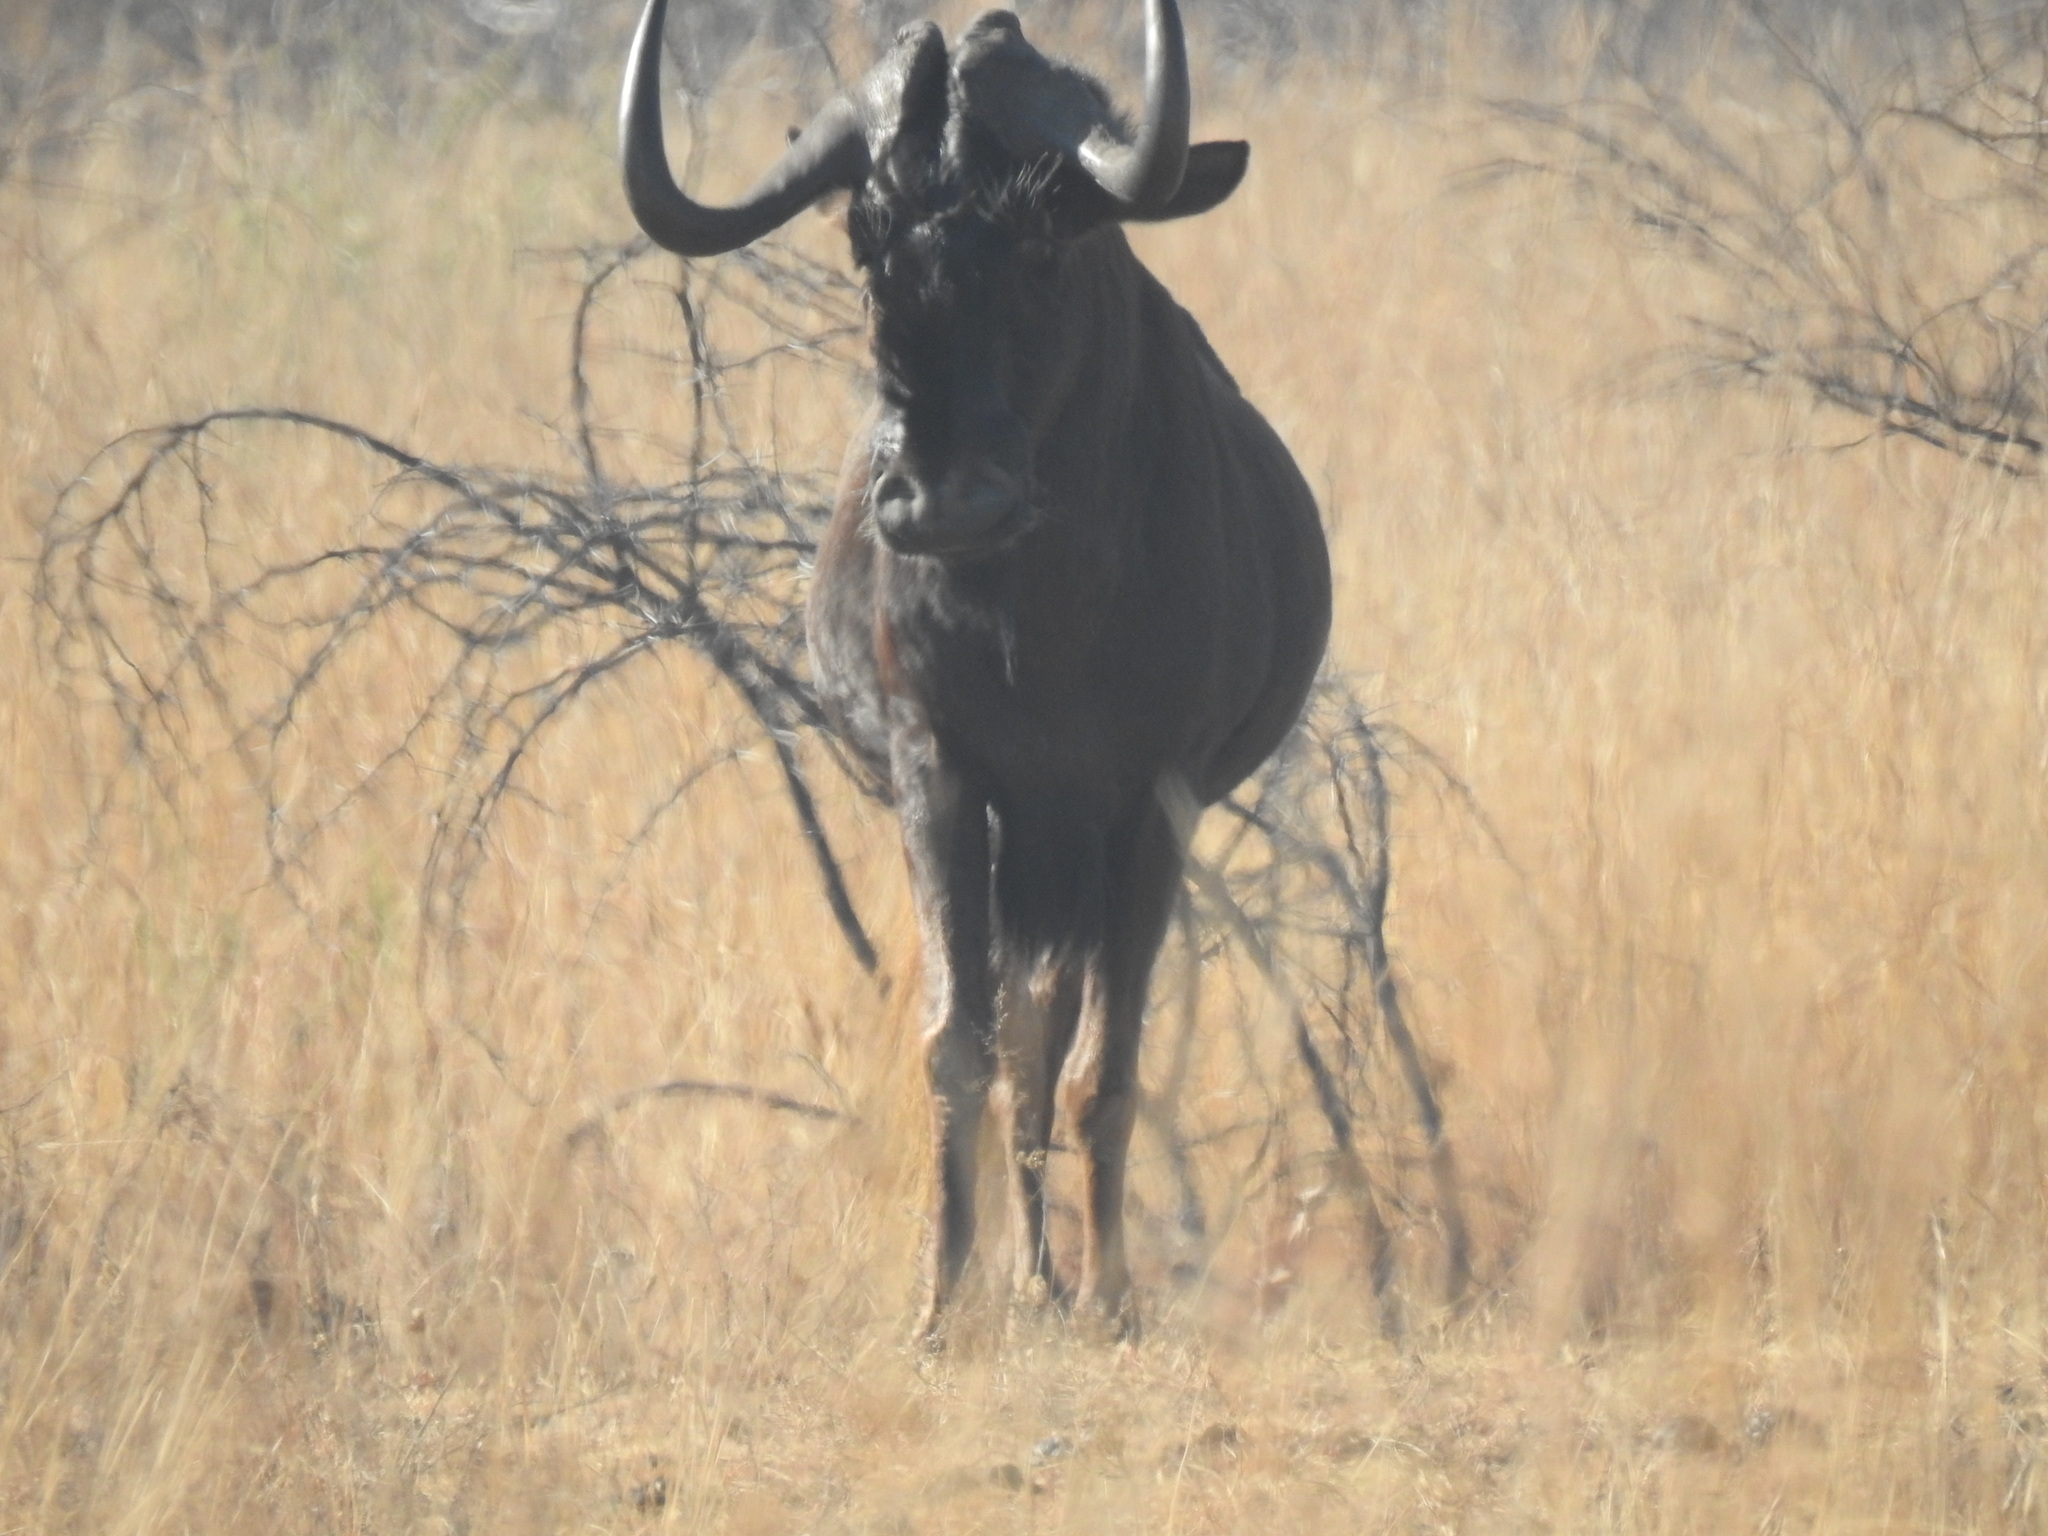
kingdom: Animalia
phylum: Chordata
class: Mammalia
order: Artiodactyla
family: Bovidae
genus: Connochaetes
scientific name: Connochaetes gnou
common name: Black wildebeest
